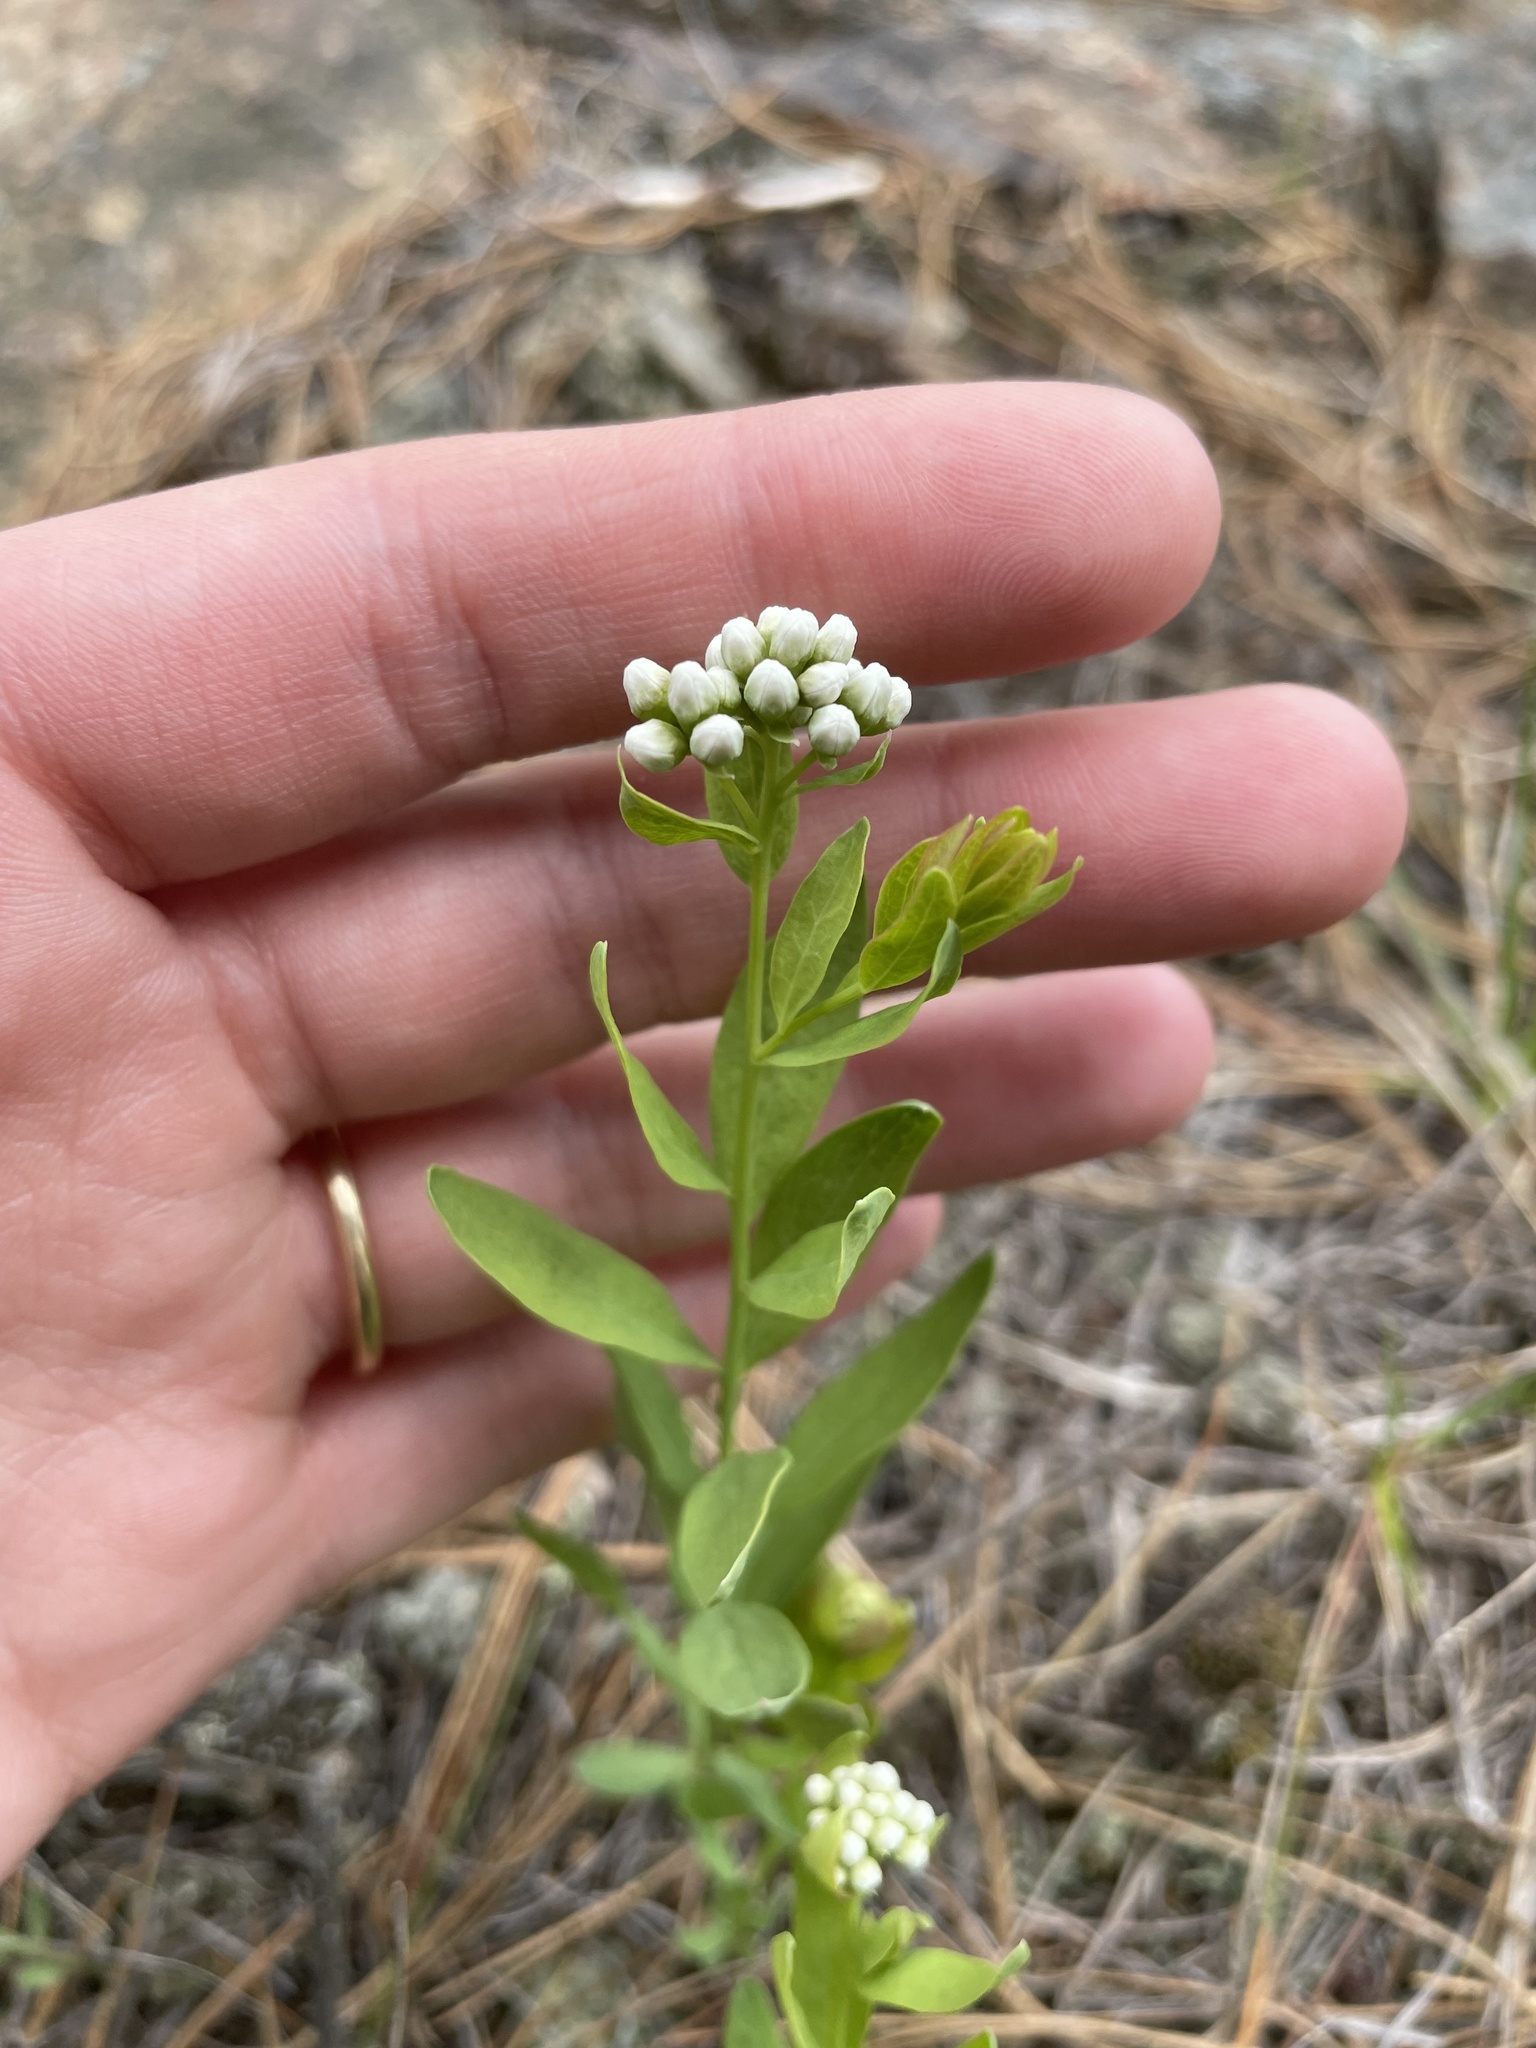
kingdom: Plantae
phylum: Tracheophyta
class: Magnoliopsida
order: Santalales
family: Comandraceae
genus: Comandra
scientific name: Comandra umbellata
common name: Bastard toadflax
